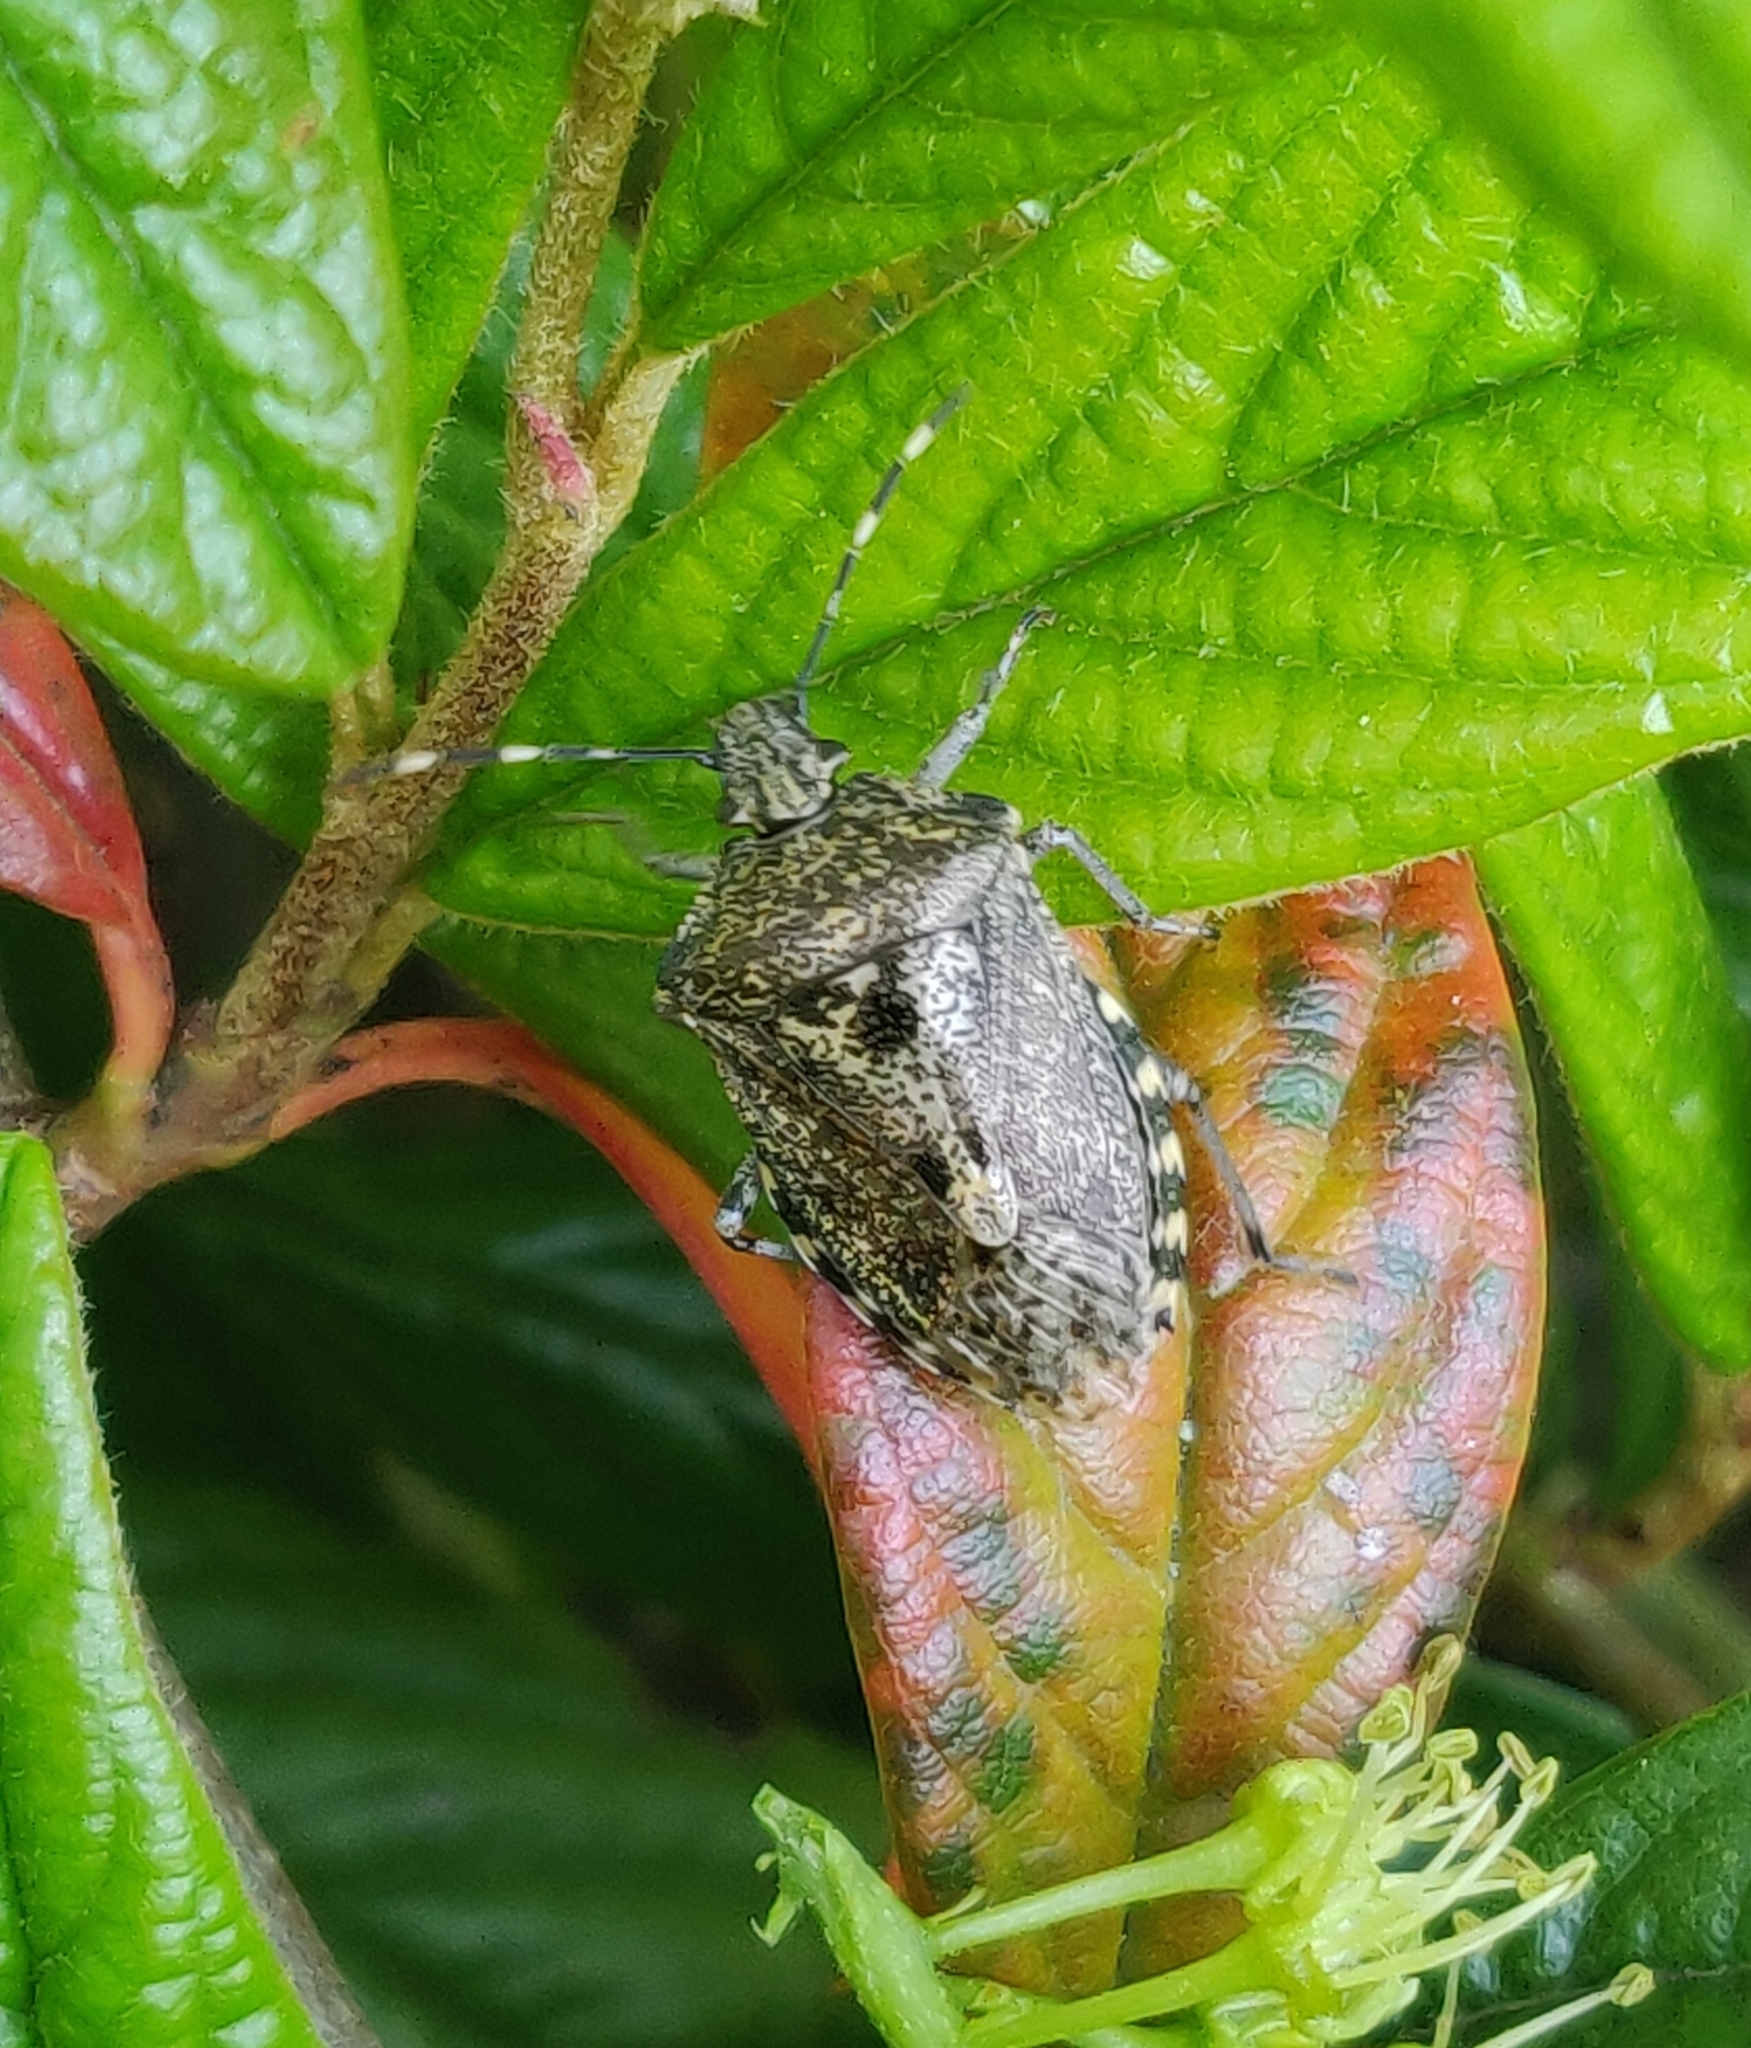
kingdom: Animalia
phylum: Arthropoda
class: Insecta
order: Hemiptera
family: Pentatomidae
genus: Rhaphigaster
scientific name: Rhaphigaster nebulosa
